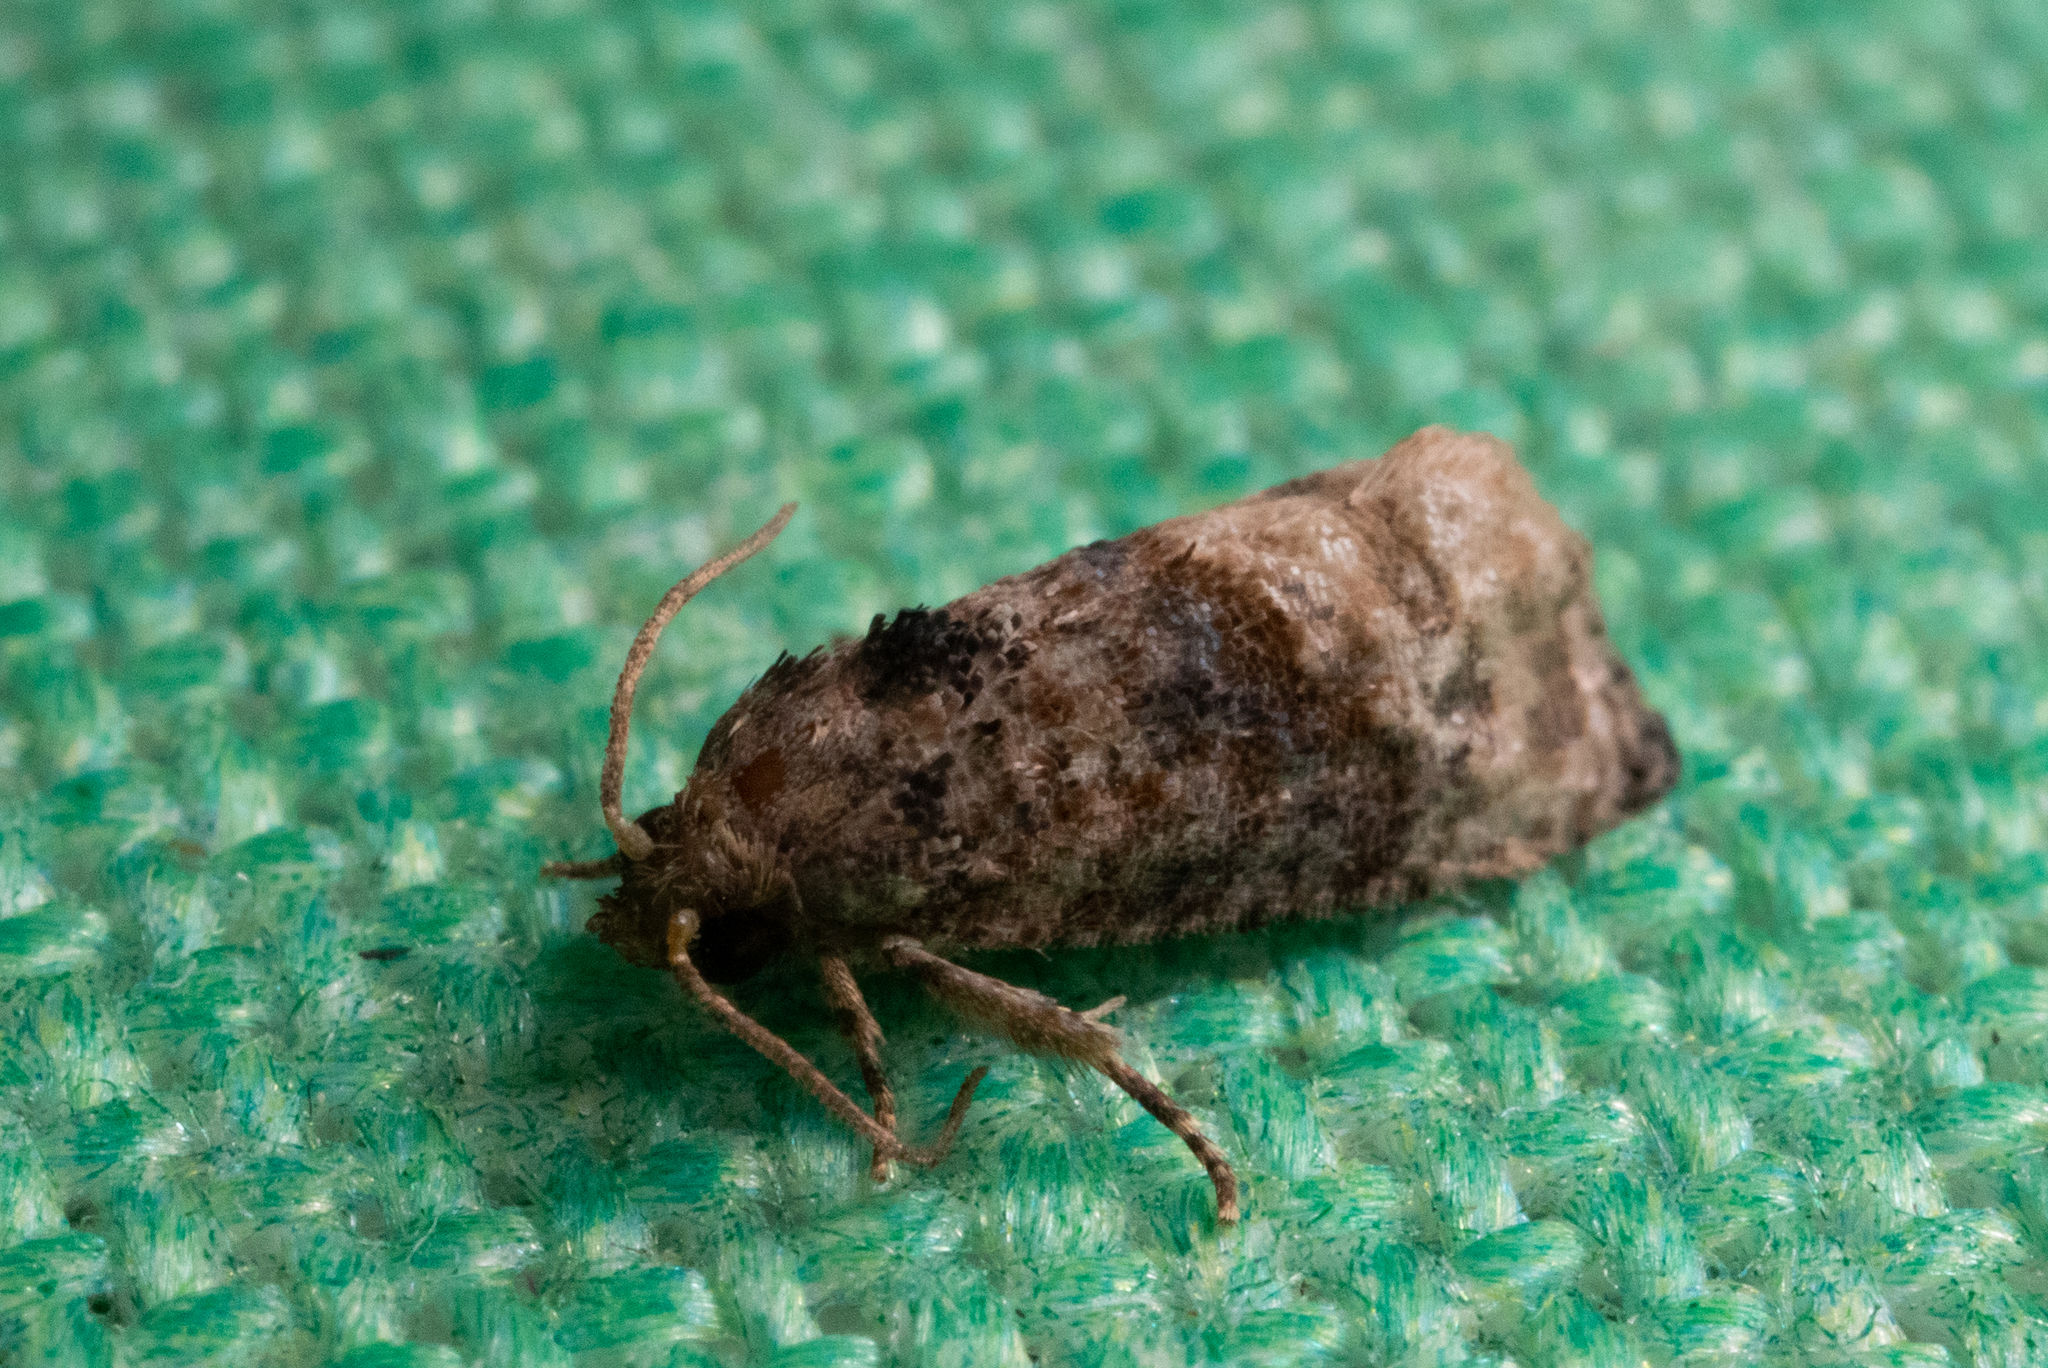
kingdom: Animalia
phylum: Arthropoda
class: Insecta
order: Lepidoptera
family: Tortricidae
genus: Ecdytolopha
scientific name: Ecdytolopha mana
